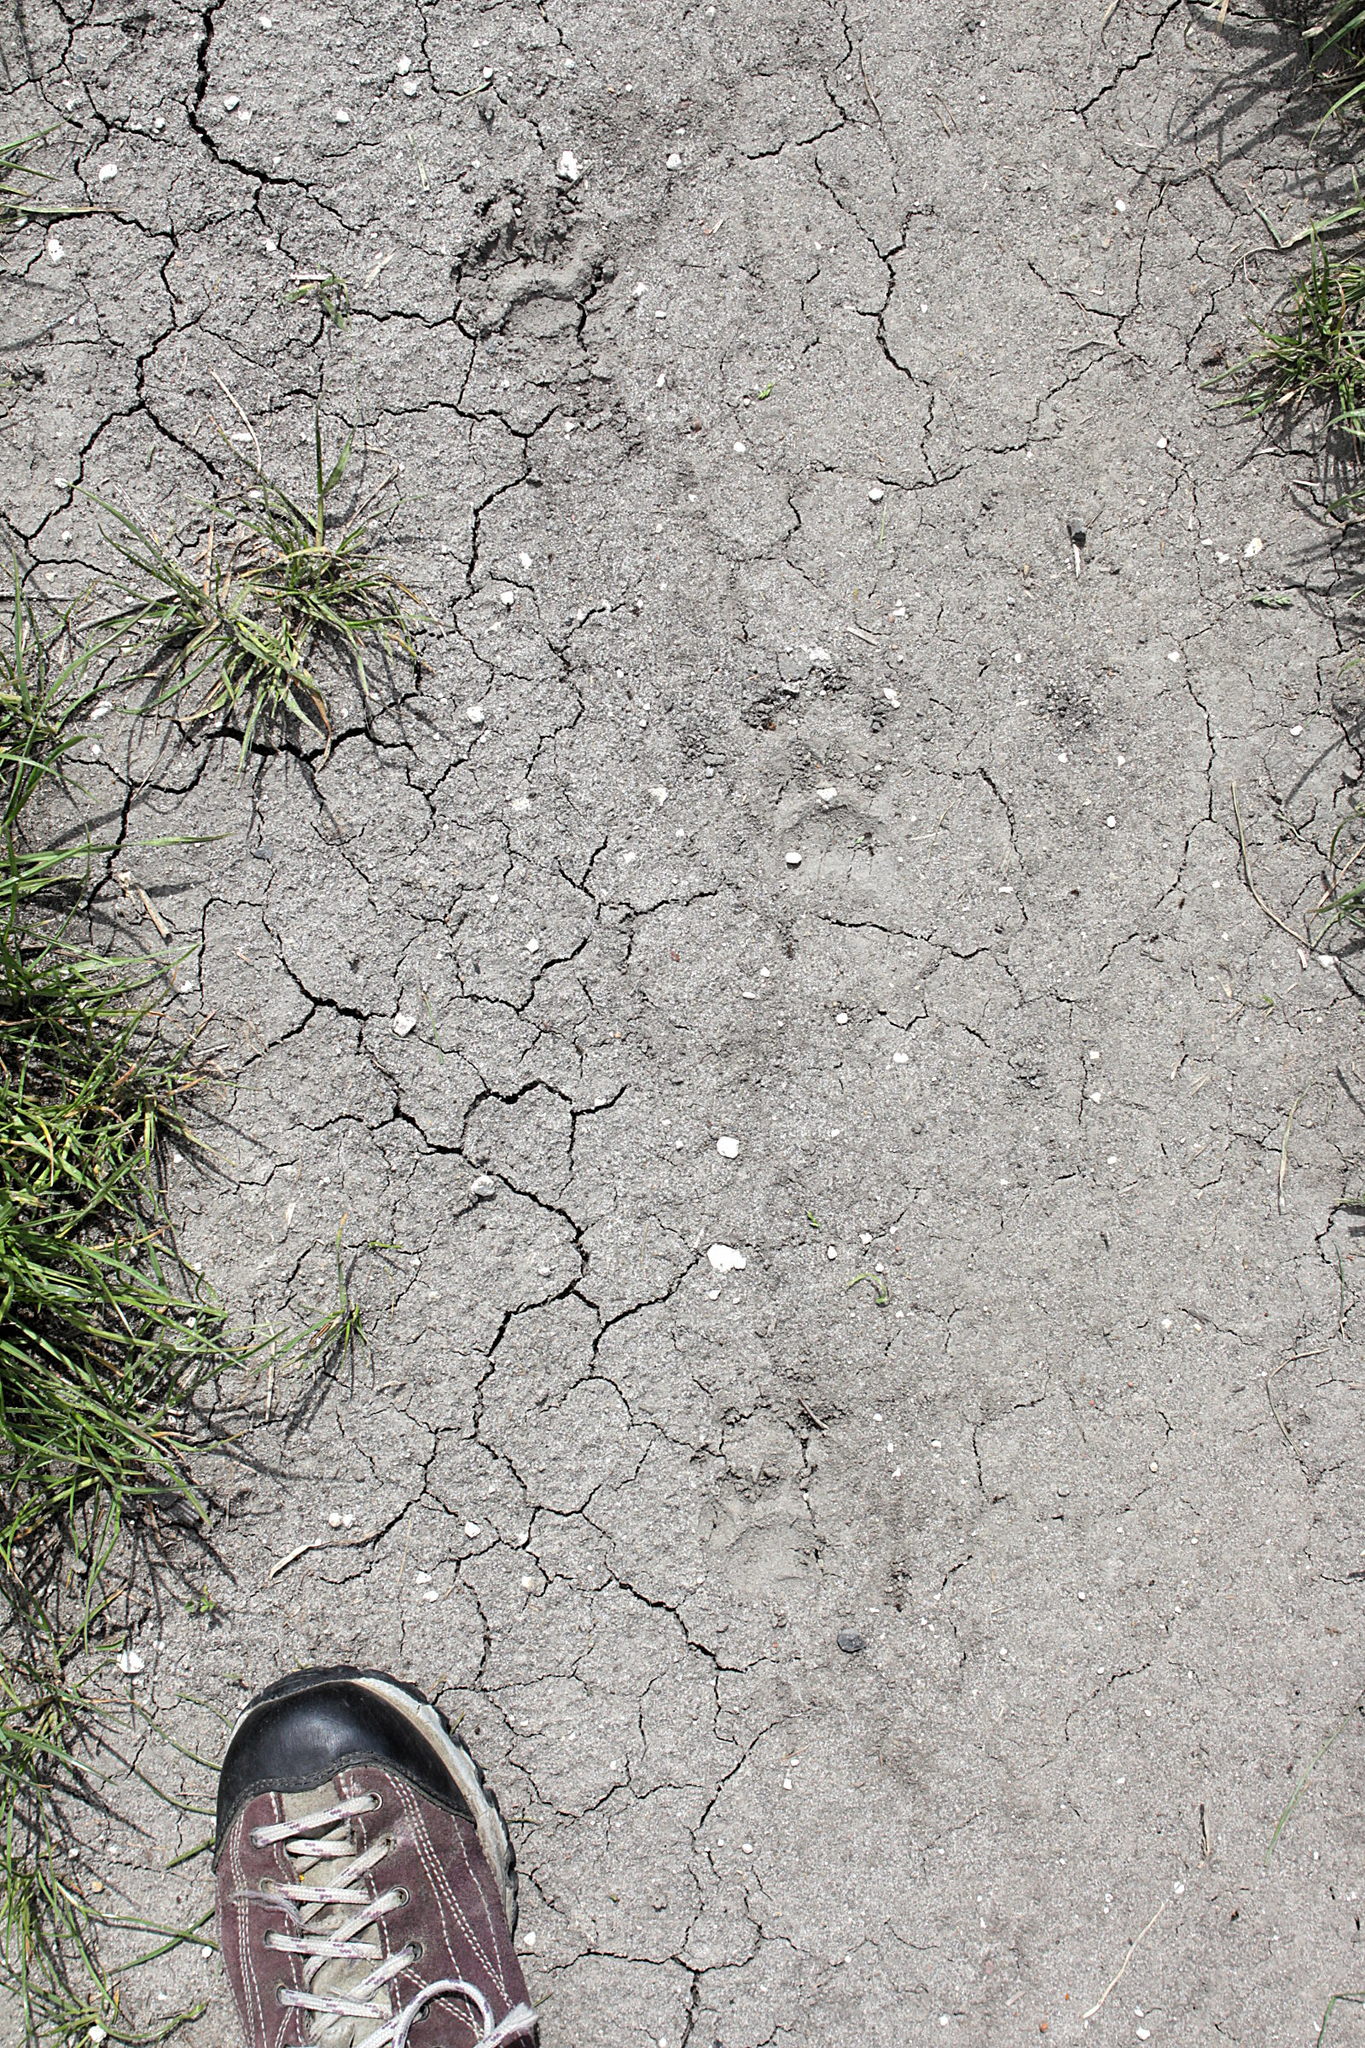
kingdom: Animalia
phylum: Chordata
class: Mammalia
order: Carnivora
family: Mustelidae
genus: Meles
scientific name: Meles meles
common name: Eurasian badger
